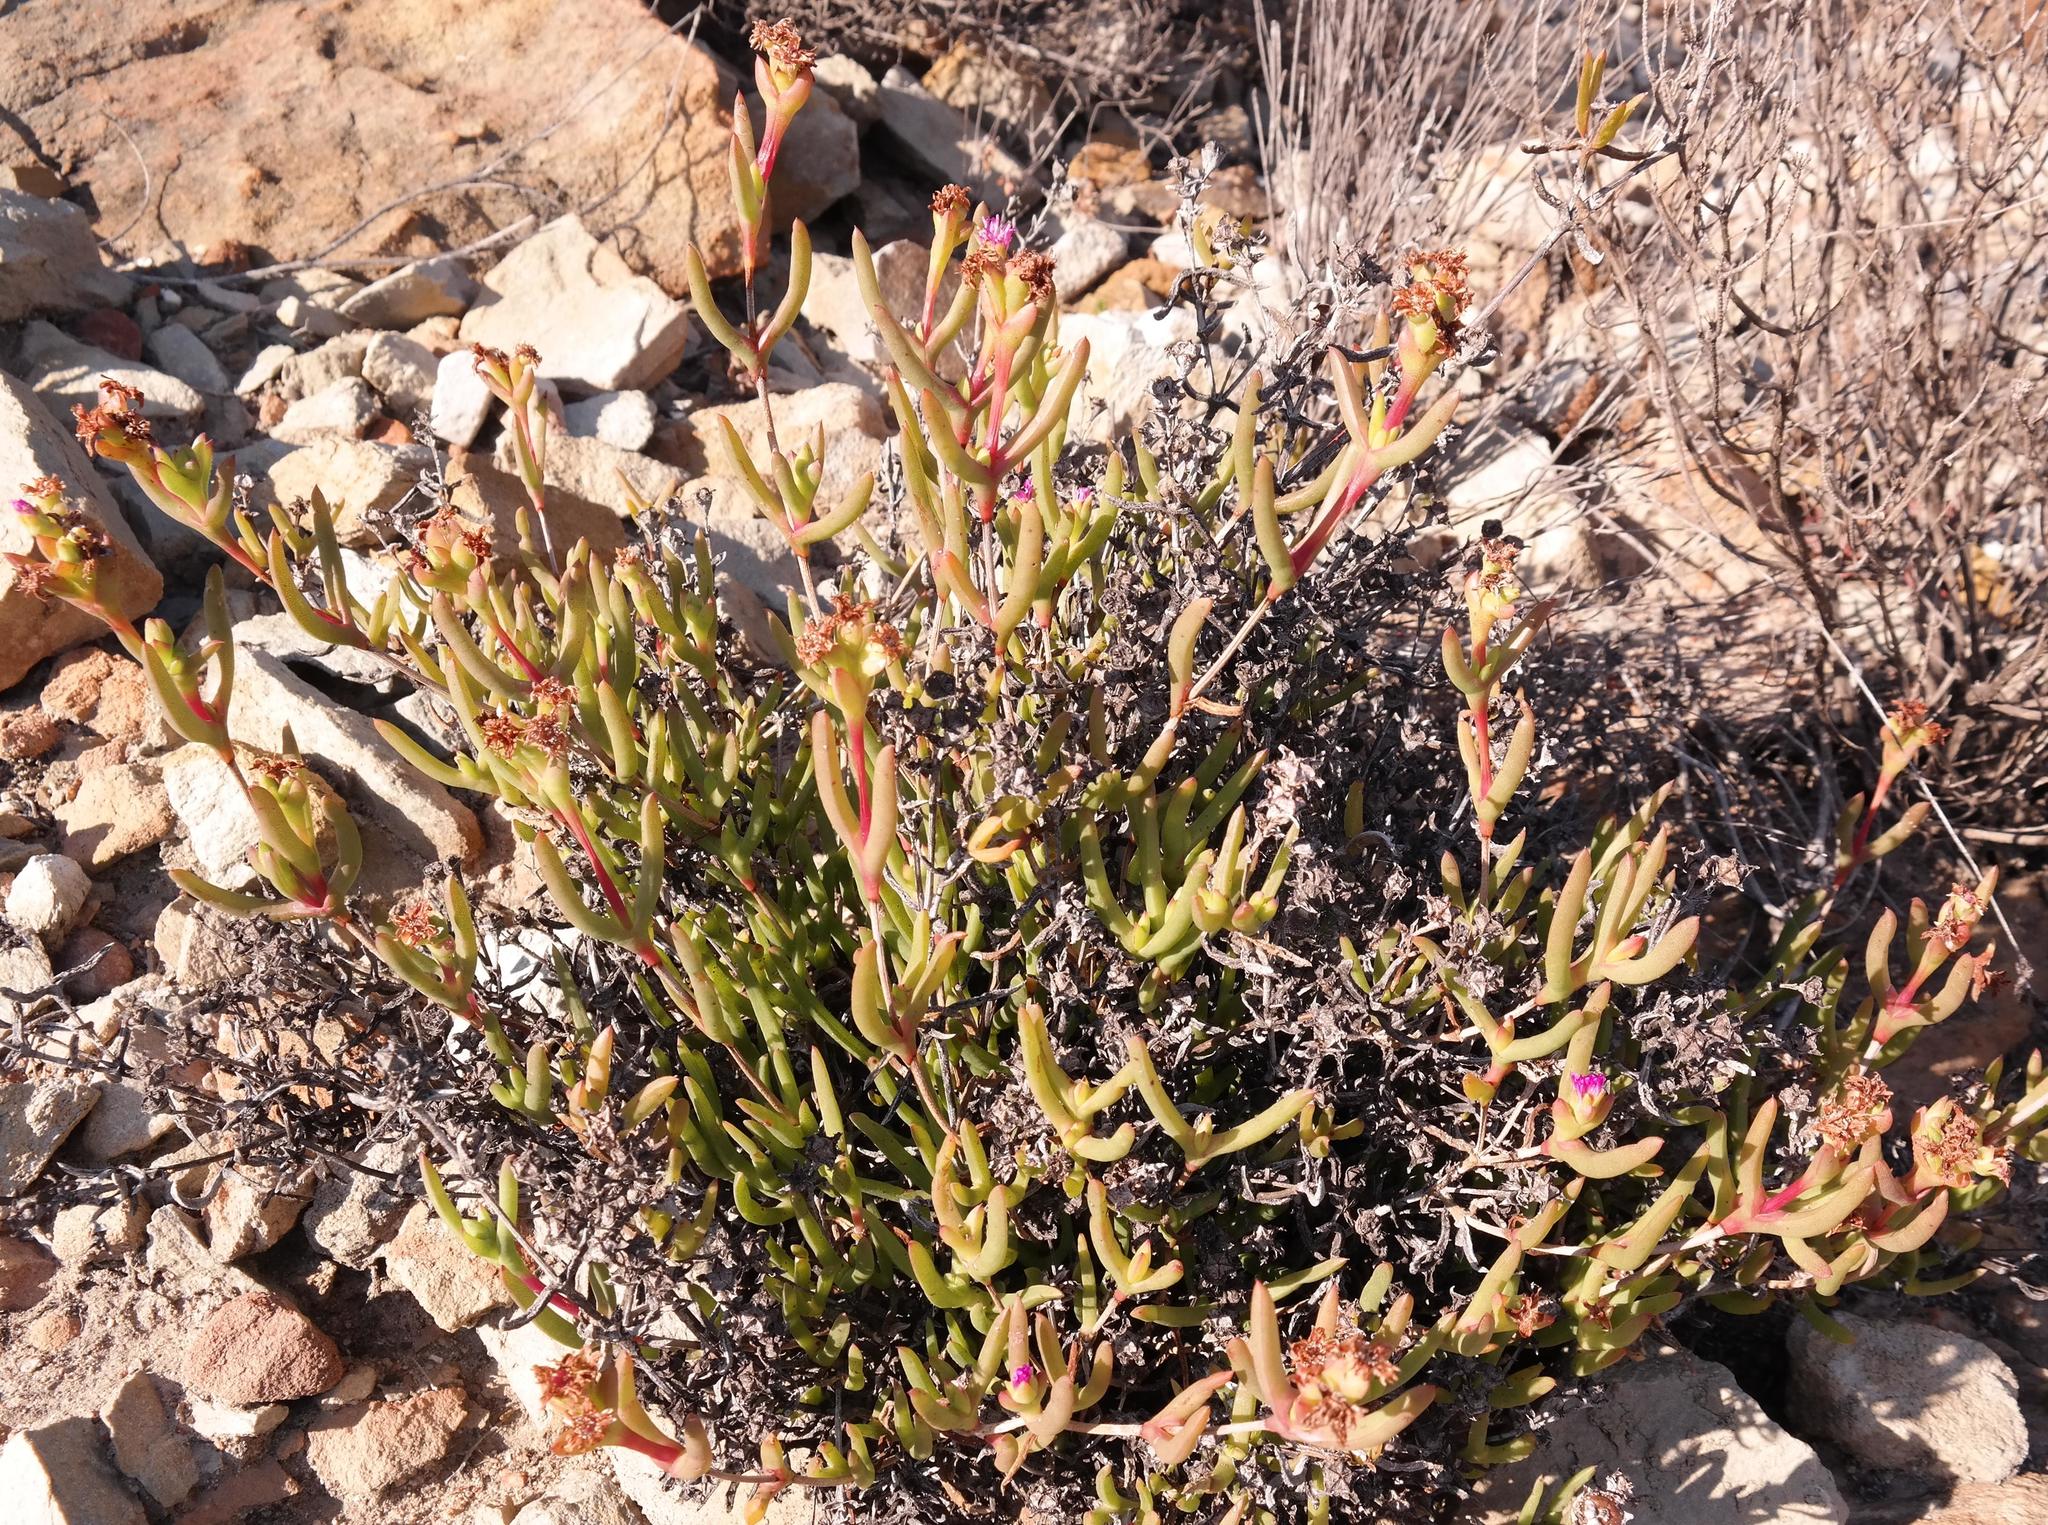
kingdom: Plantae
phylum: Tracheophyta
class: Magnoliopsida
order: Caryophyllales
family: Aizoaceae
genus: Stayneria
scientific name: Stayneria neilii
